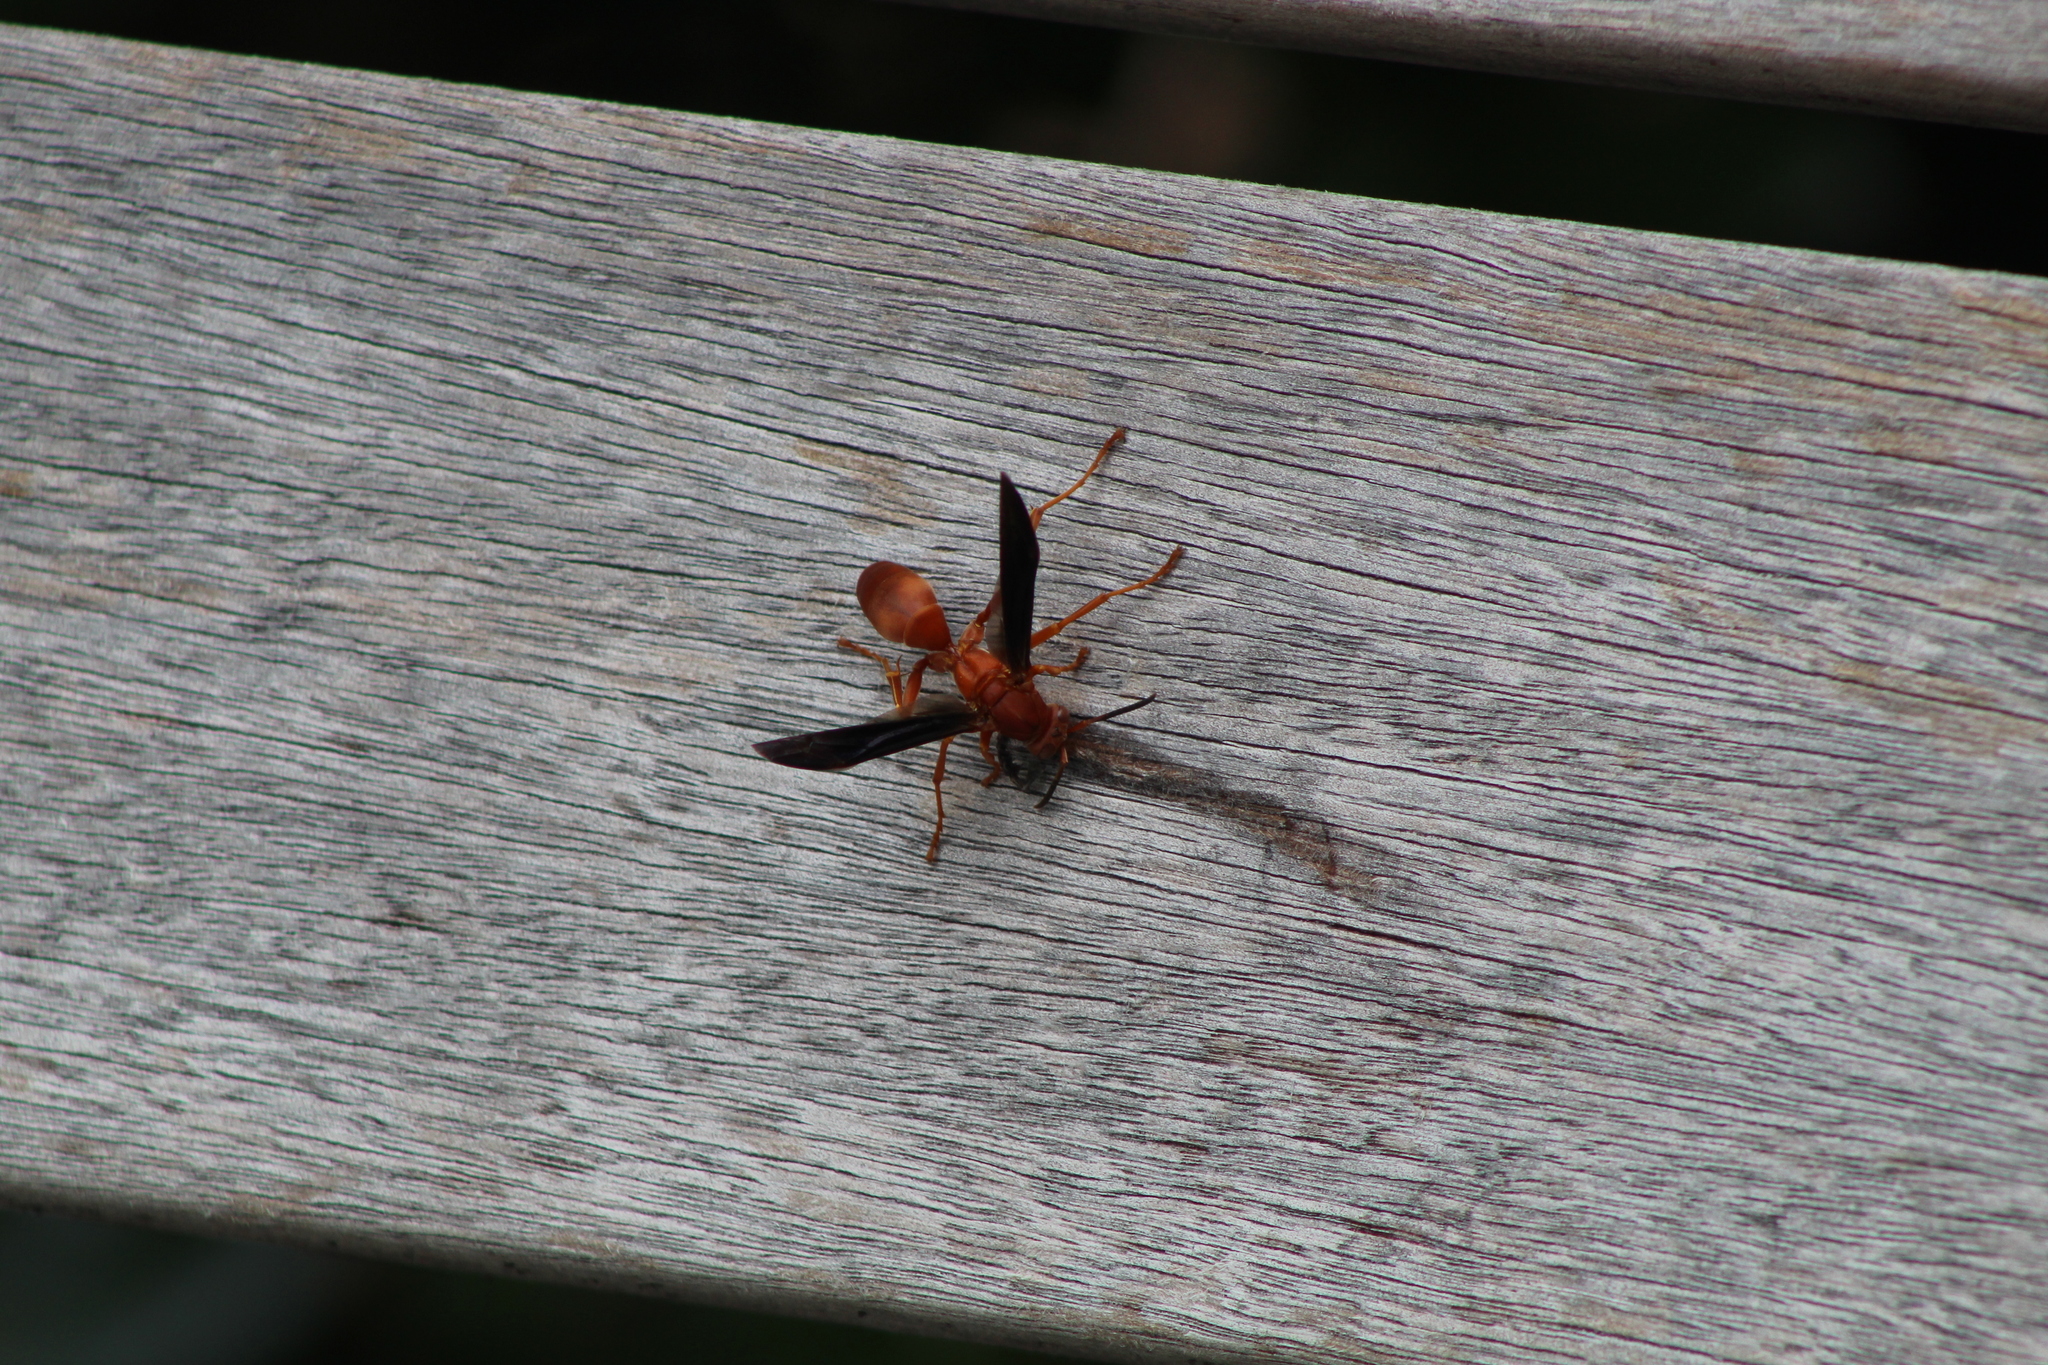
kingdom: Animalia
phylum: Arthropoda
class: Insecta
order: Hymenoptera
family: Vespidae
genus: Fuscopolistes
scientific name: Fuscopolistes
